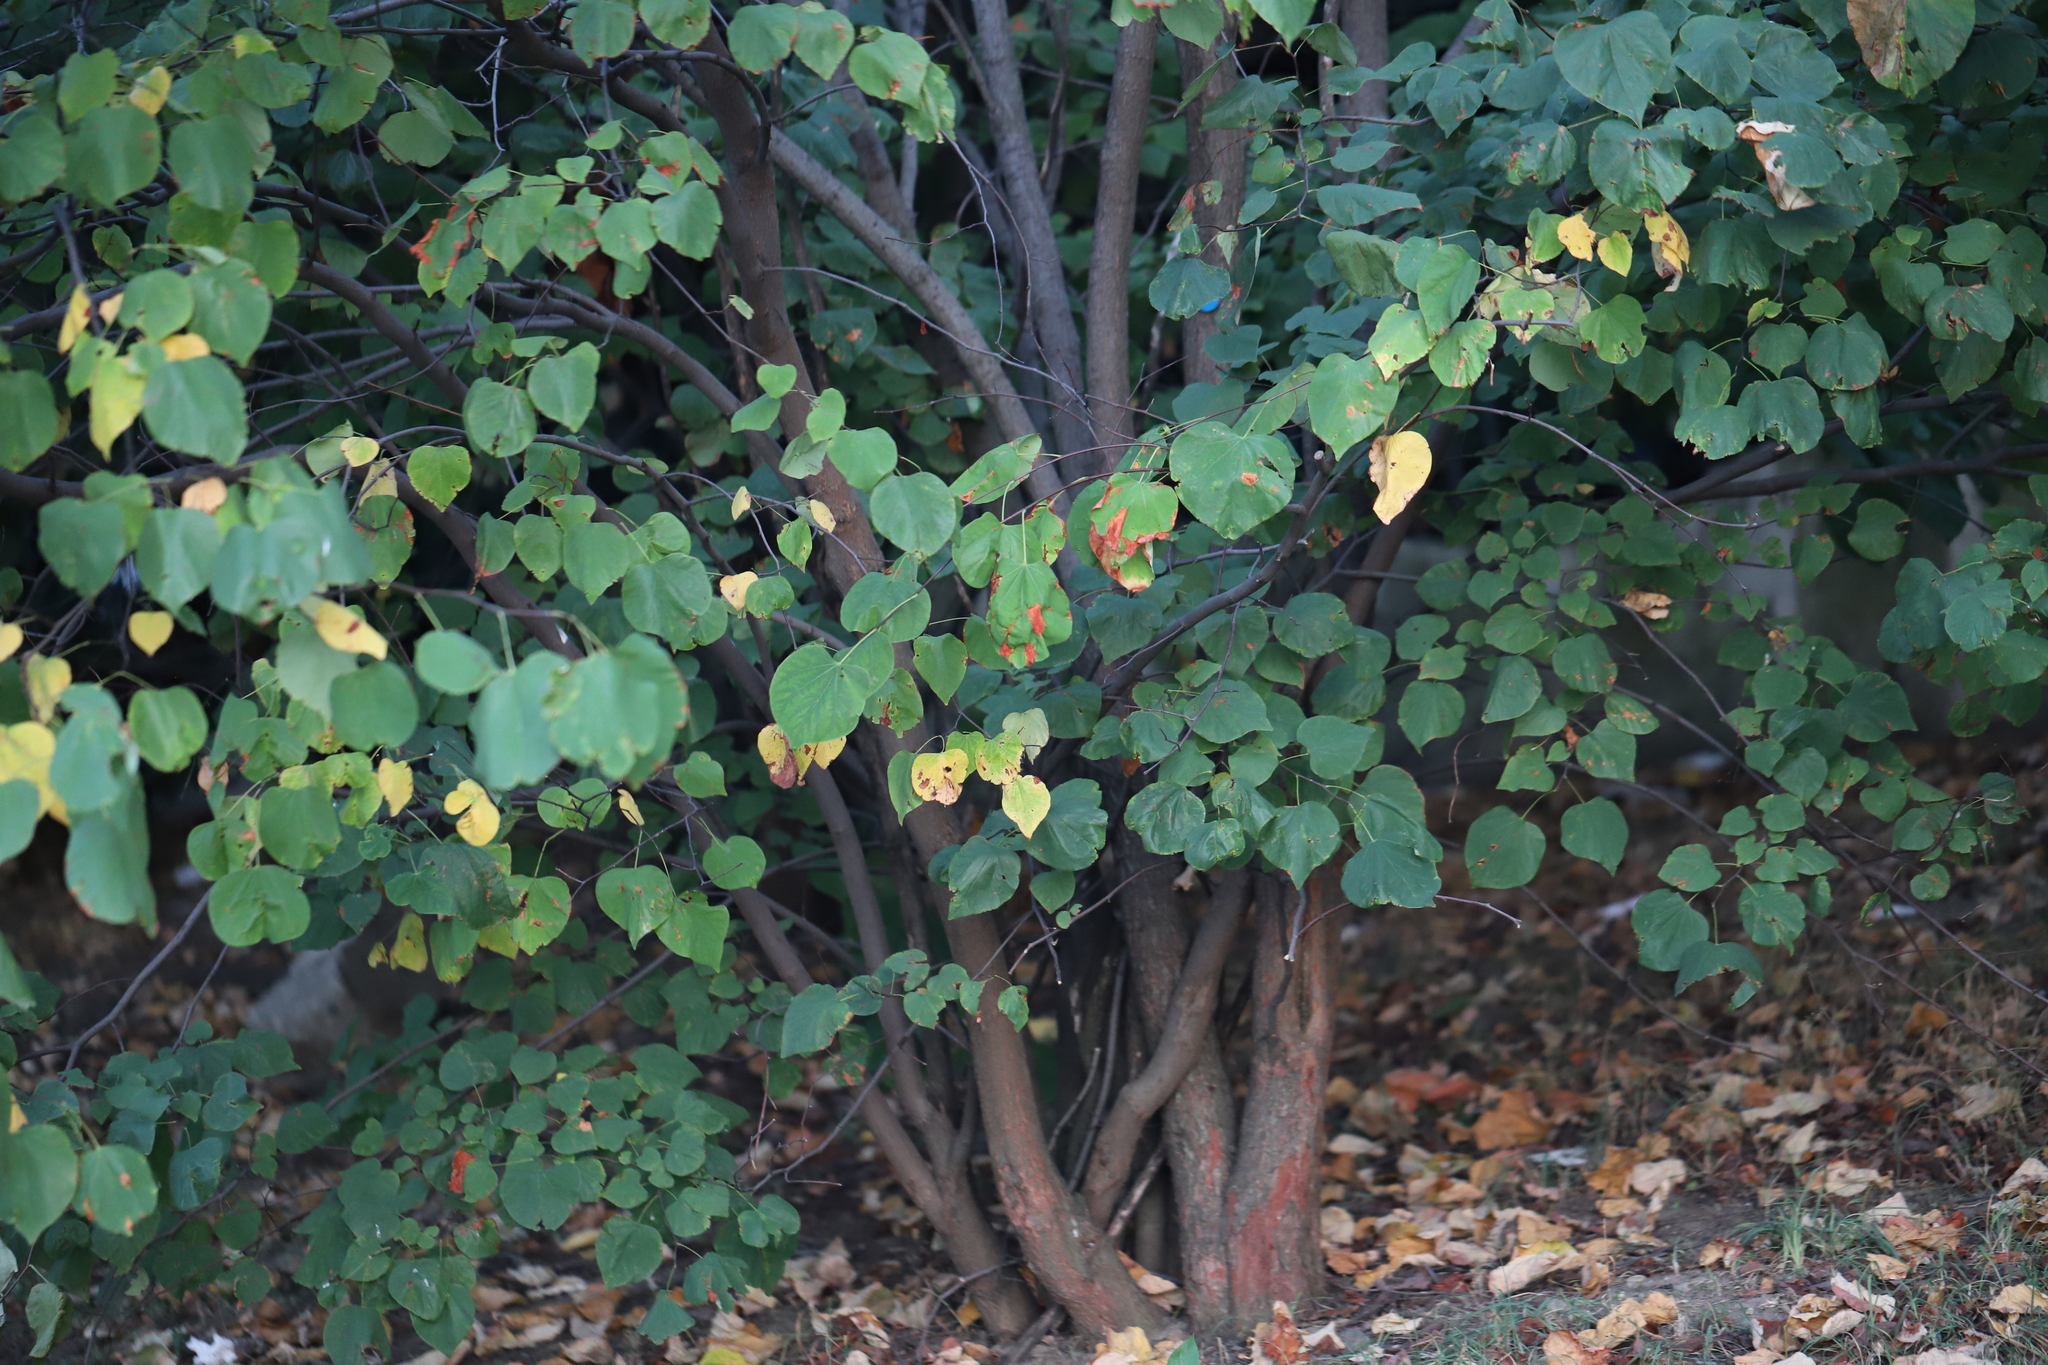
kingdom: Plantae
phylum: Tracheophyta
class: Magnoliopsida
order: Fabales
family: Fabaceae
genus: Cercis
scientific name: Cercis canadensis
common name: Eastern redbud
